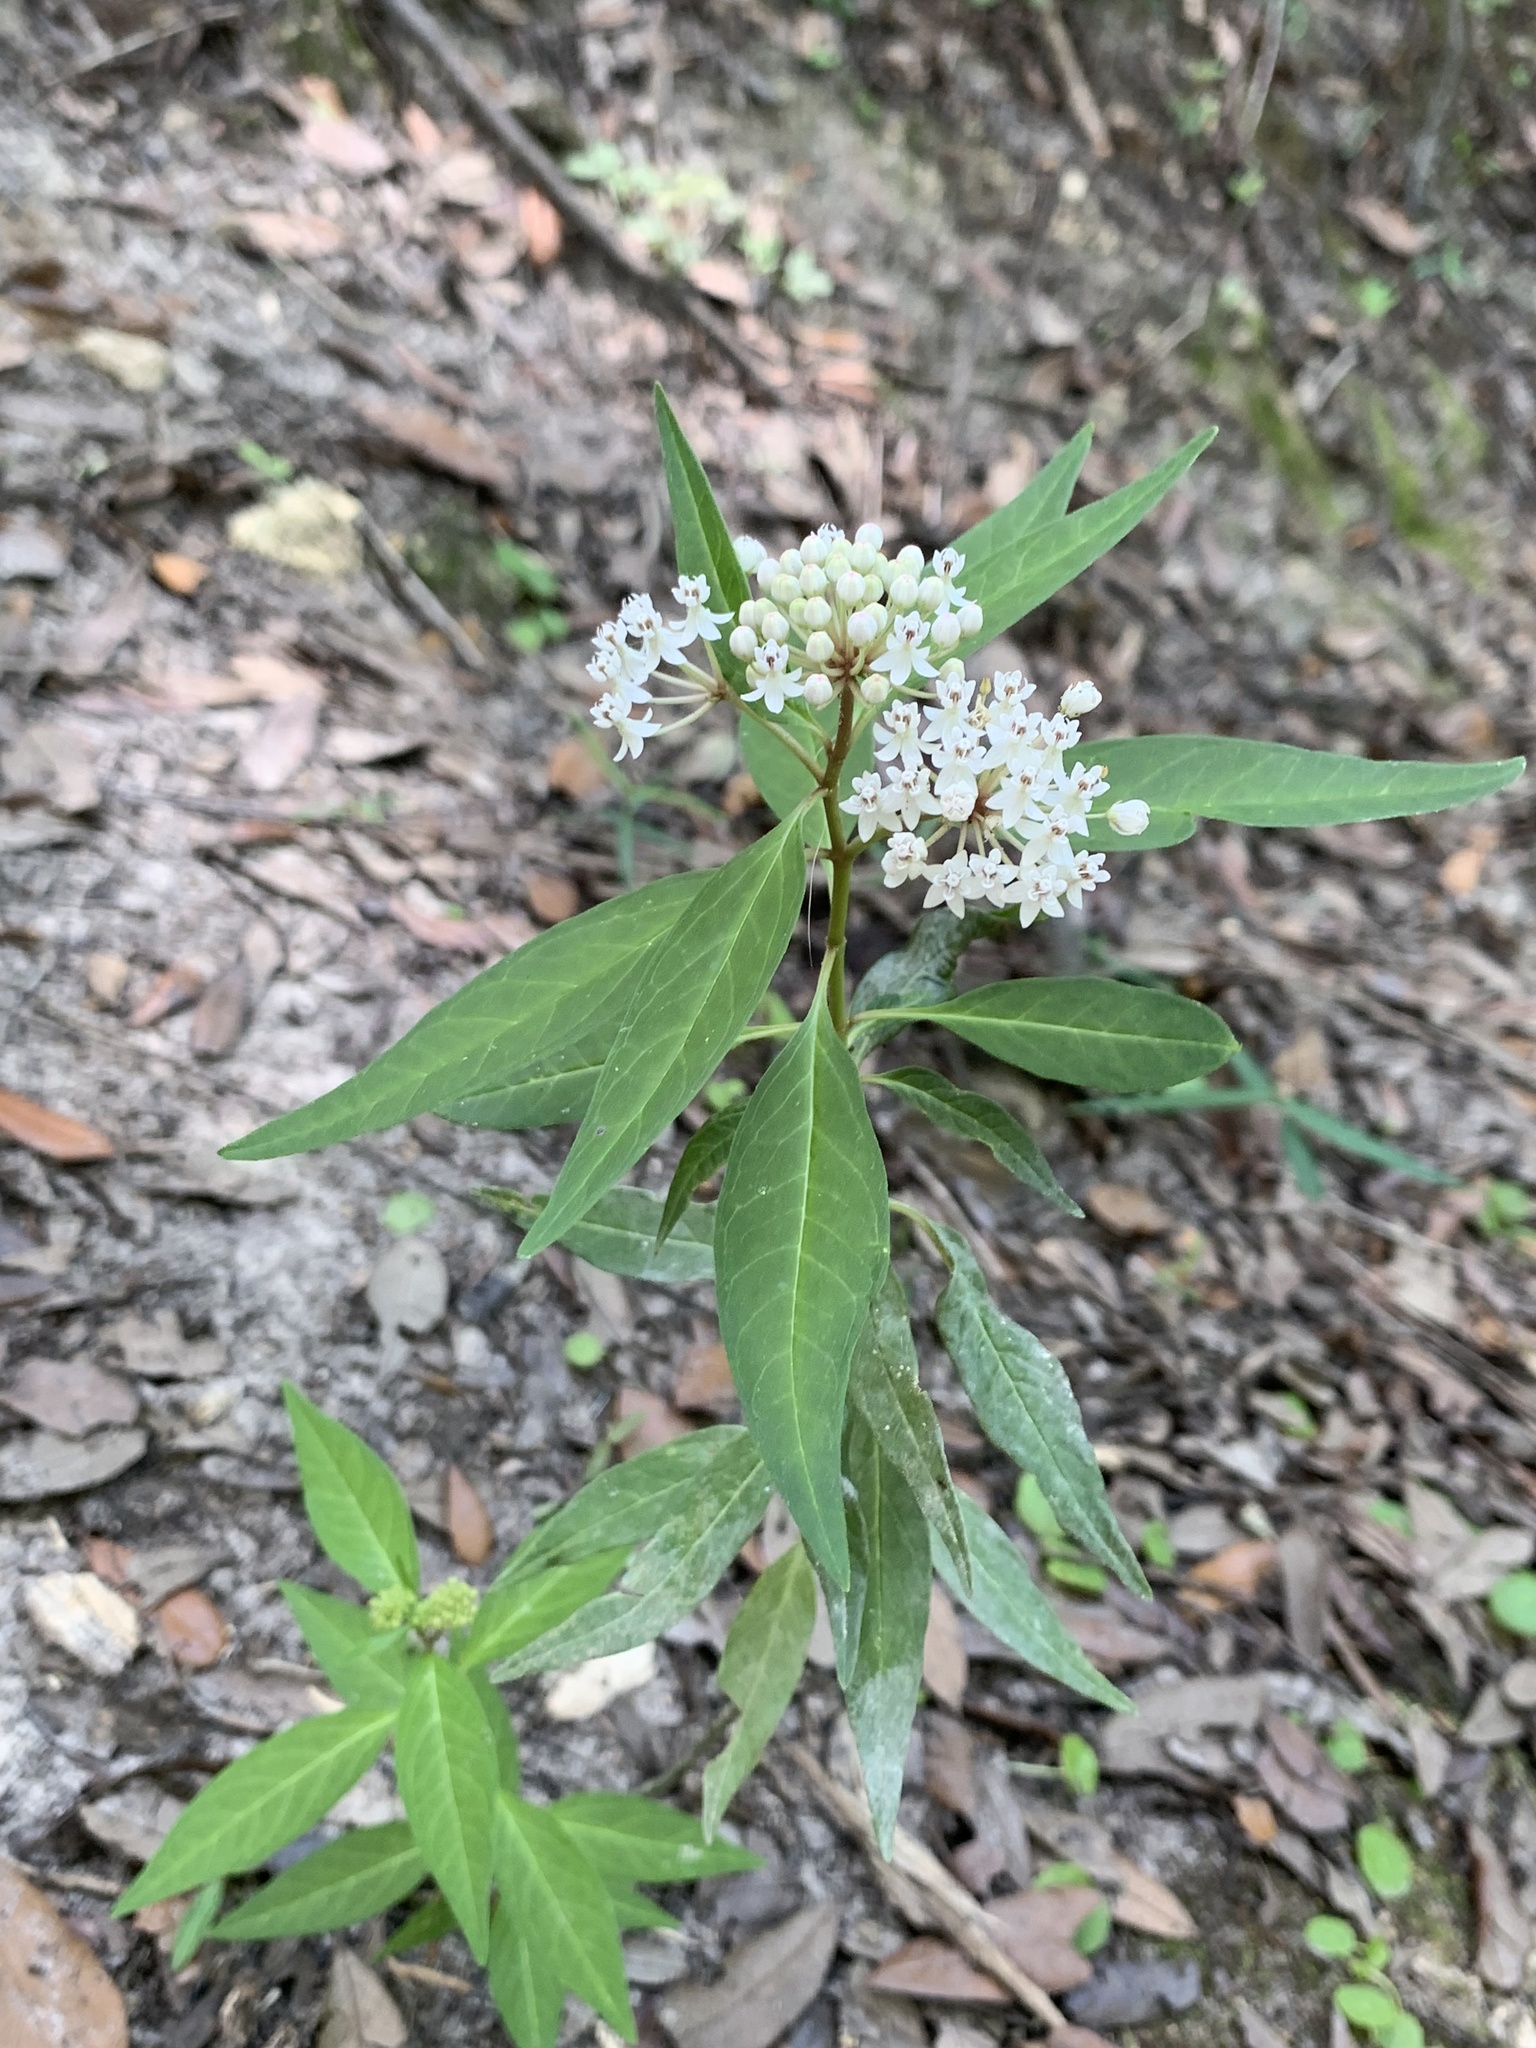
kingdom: Plantae
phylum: Tracheophyta
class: Magnoliopsida
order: Gentianales
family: Apocynaceae
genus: Asclepias
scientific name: Asclepias perennis
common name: Smooth-seed milkweed
